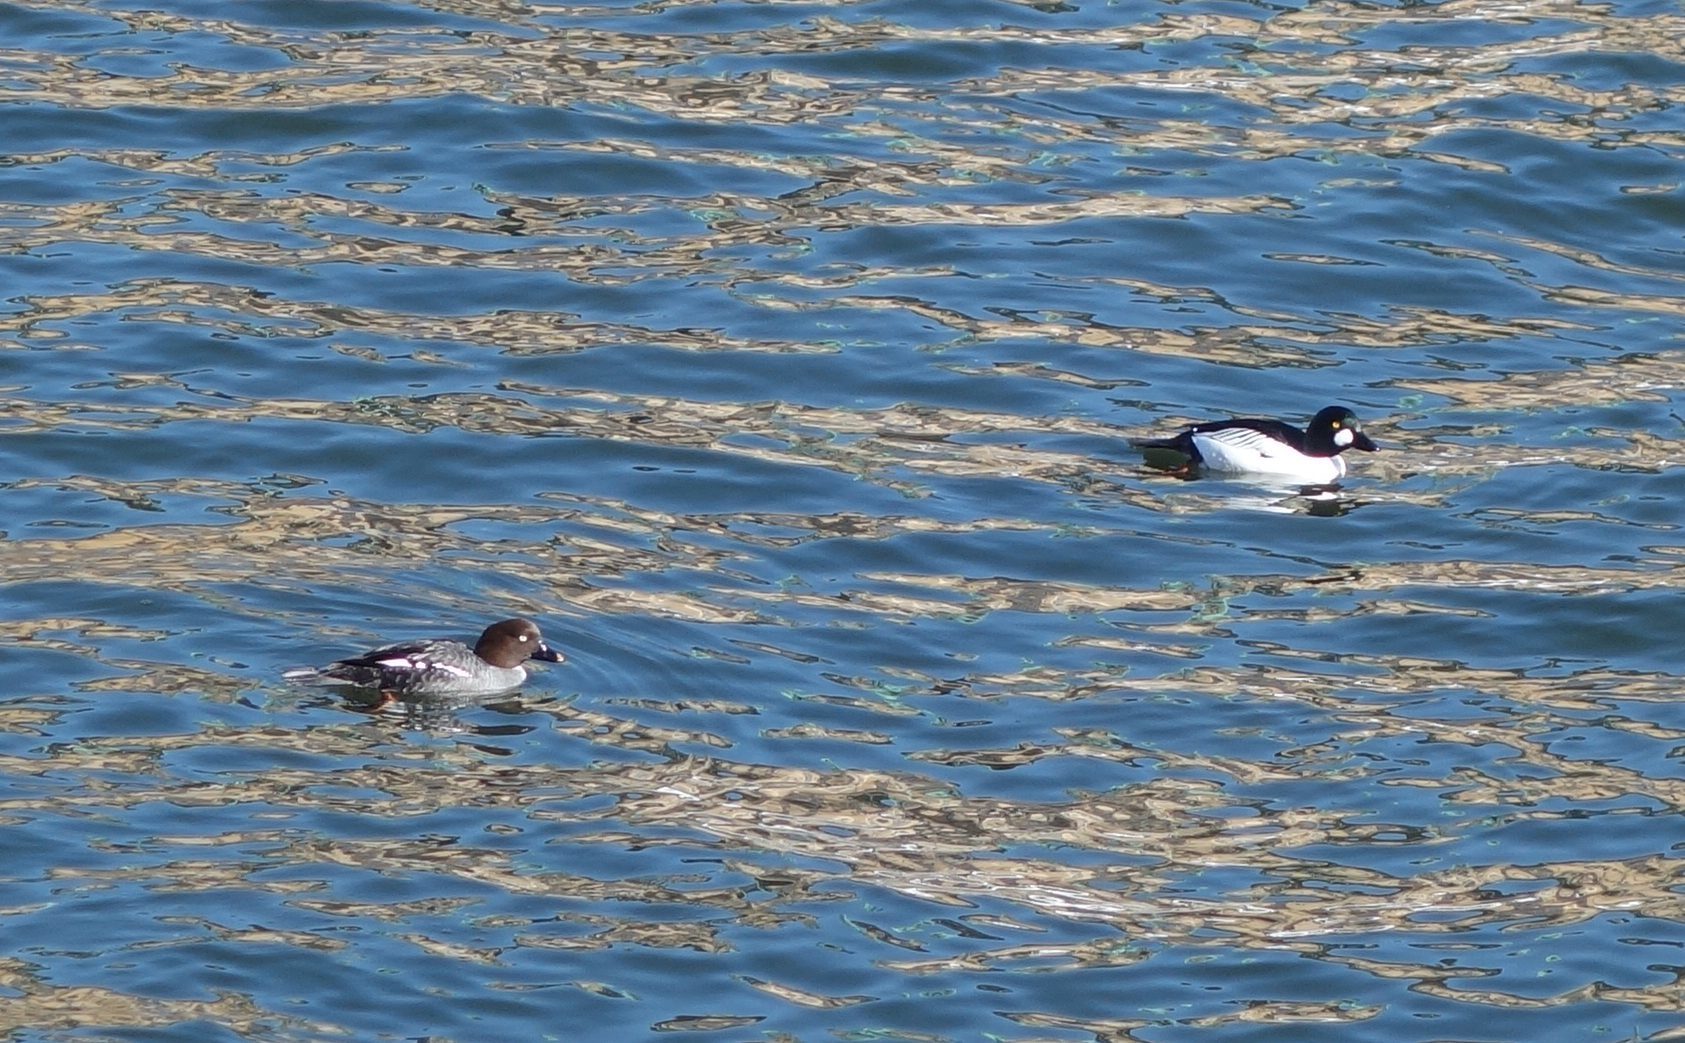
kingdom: Animalia
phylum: Chordata
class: Aves
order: Anseriformes
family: Anatidae
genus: Bucephala
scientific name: Bucephala clangula
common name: Common goldeneye
